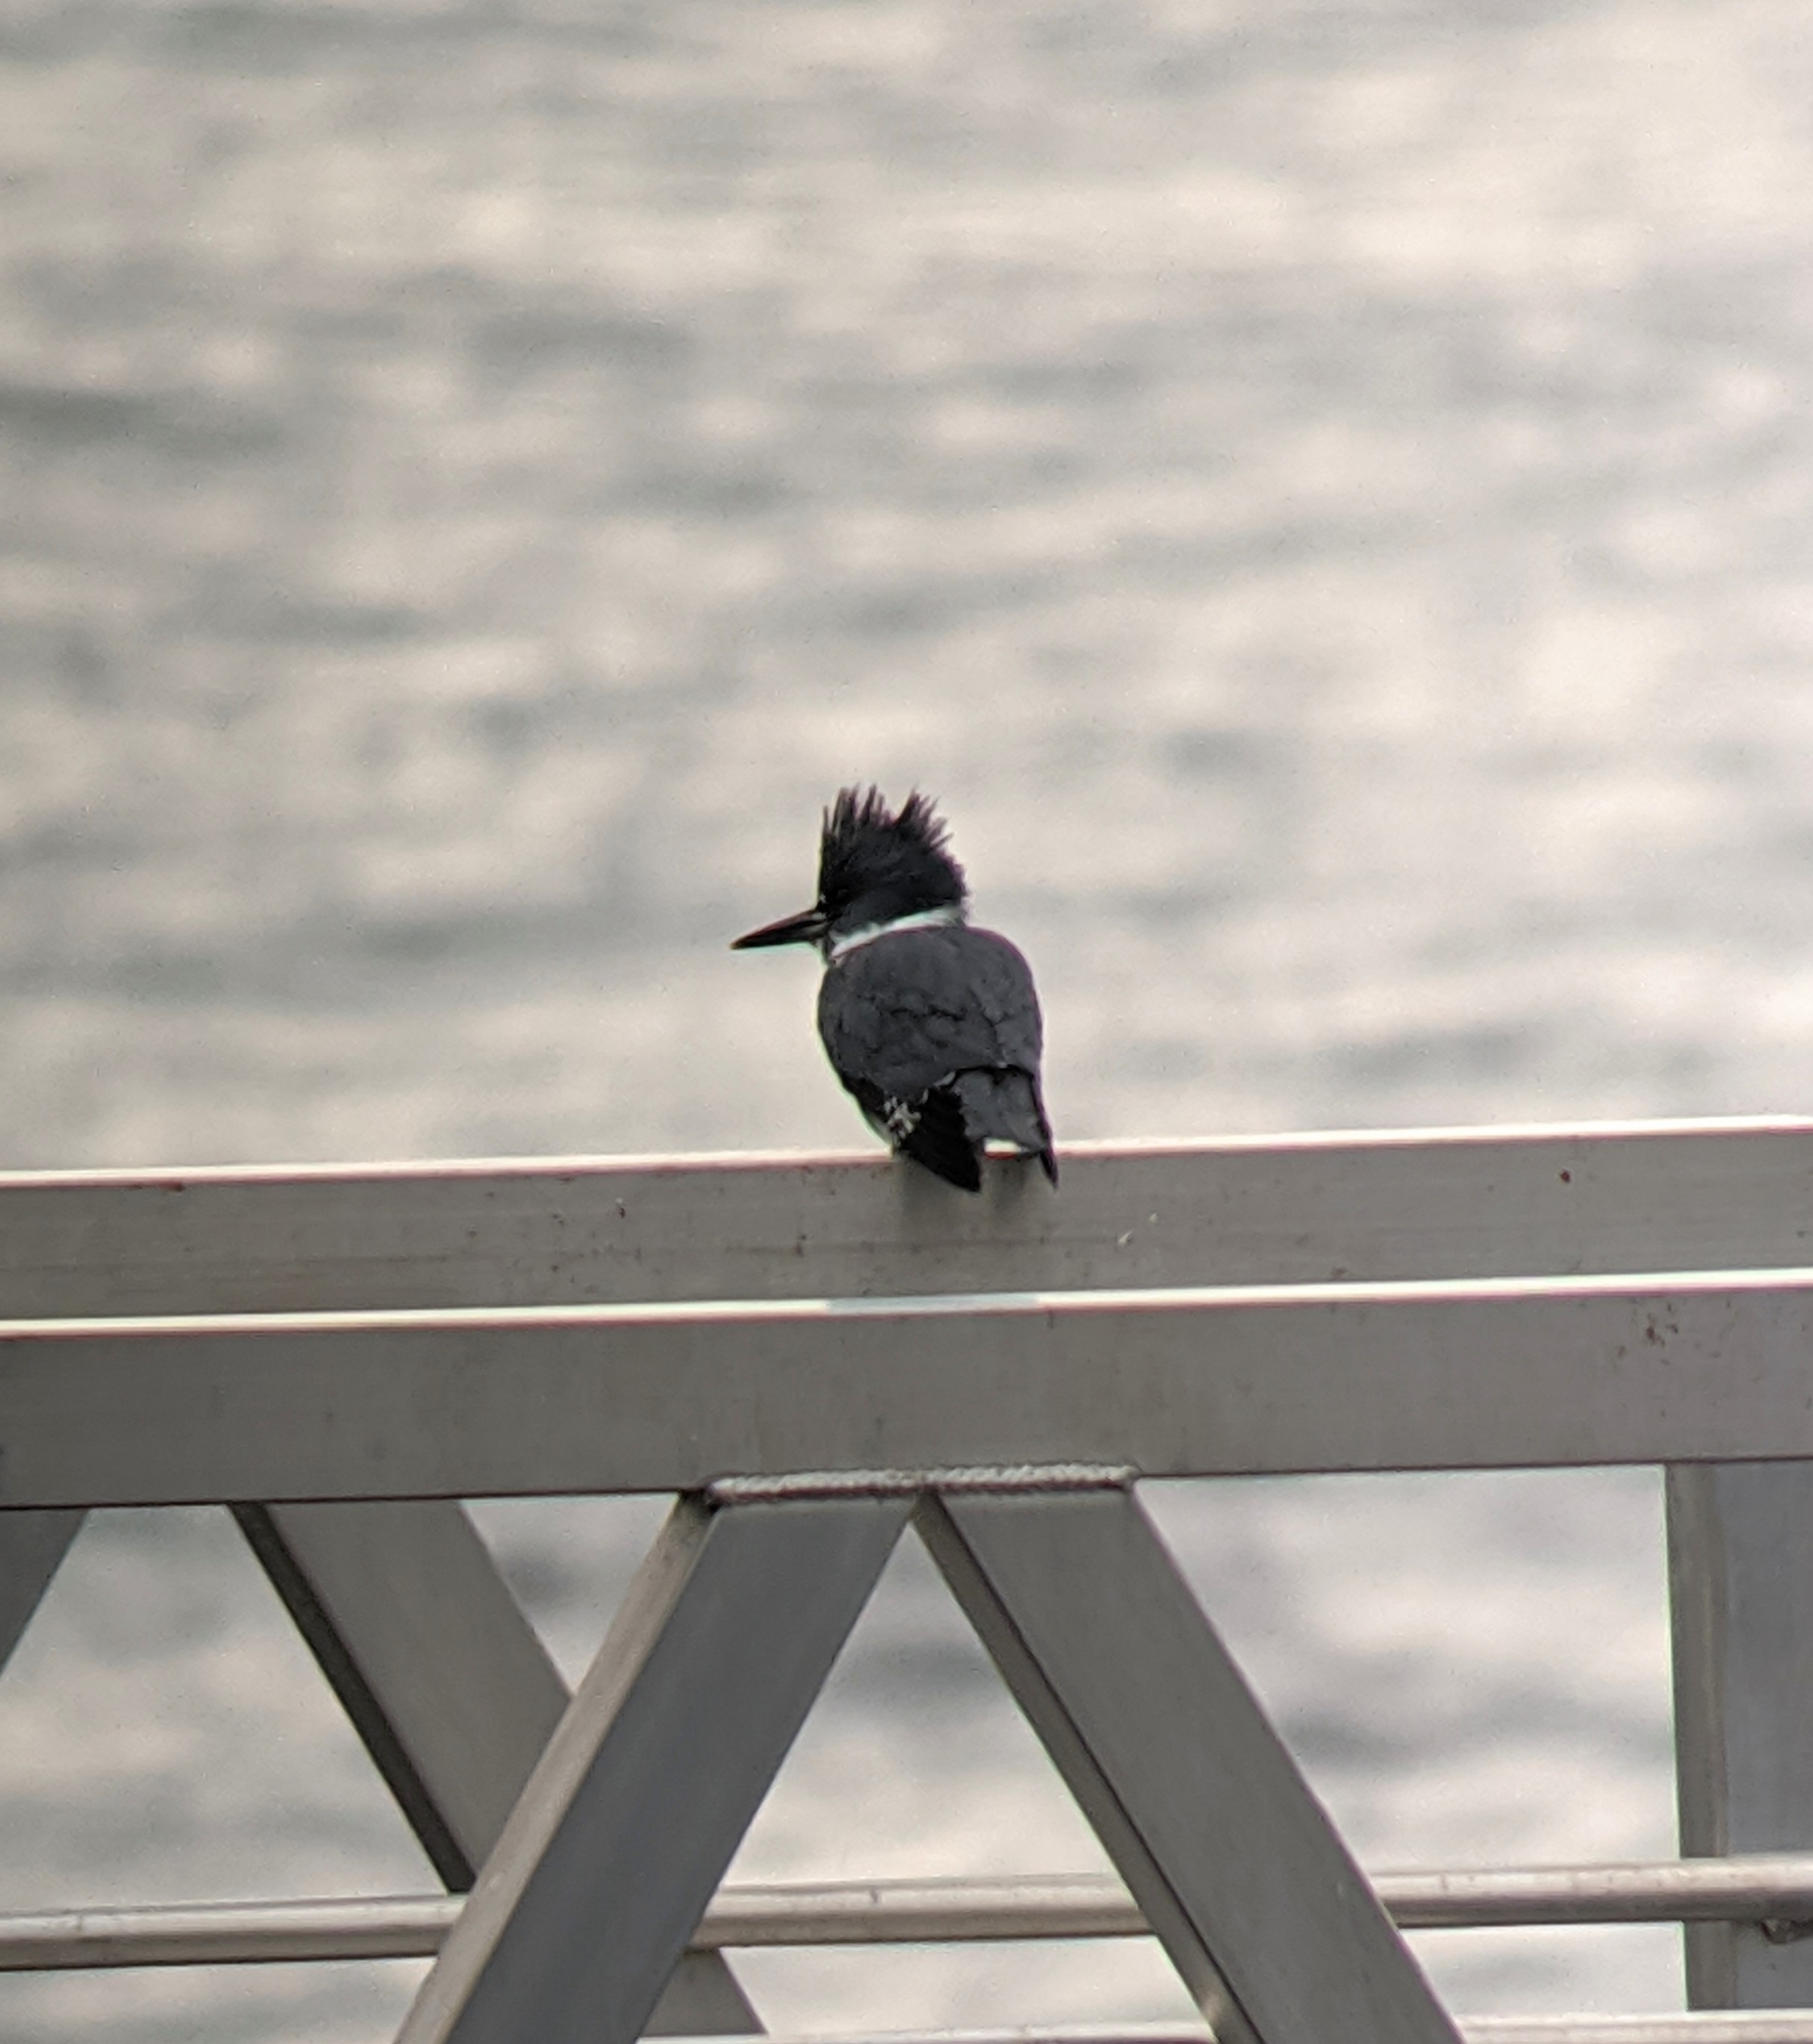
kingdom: Animalia
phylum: Chordata
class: Aves
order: Coraciiformes
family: Alcedinidae
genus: Megaceryle
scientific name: Megaceryle alcyon
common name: Belted kingfisher
